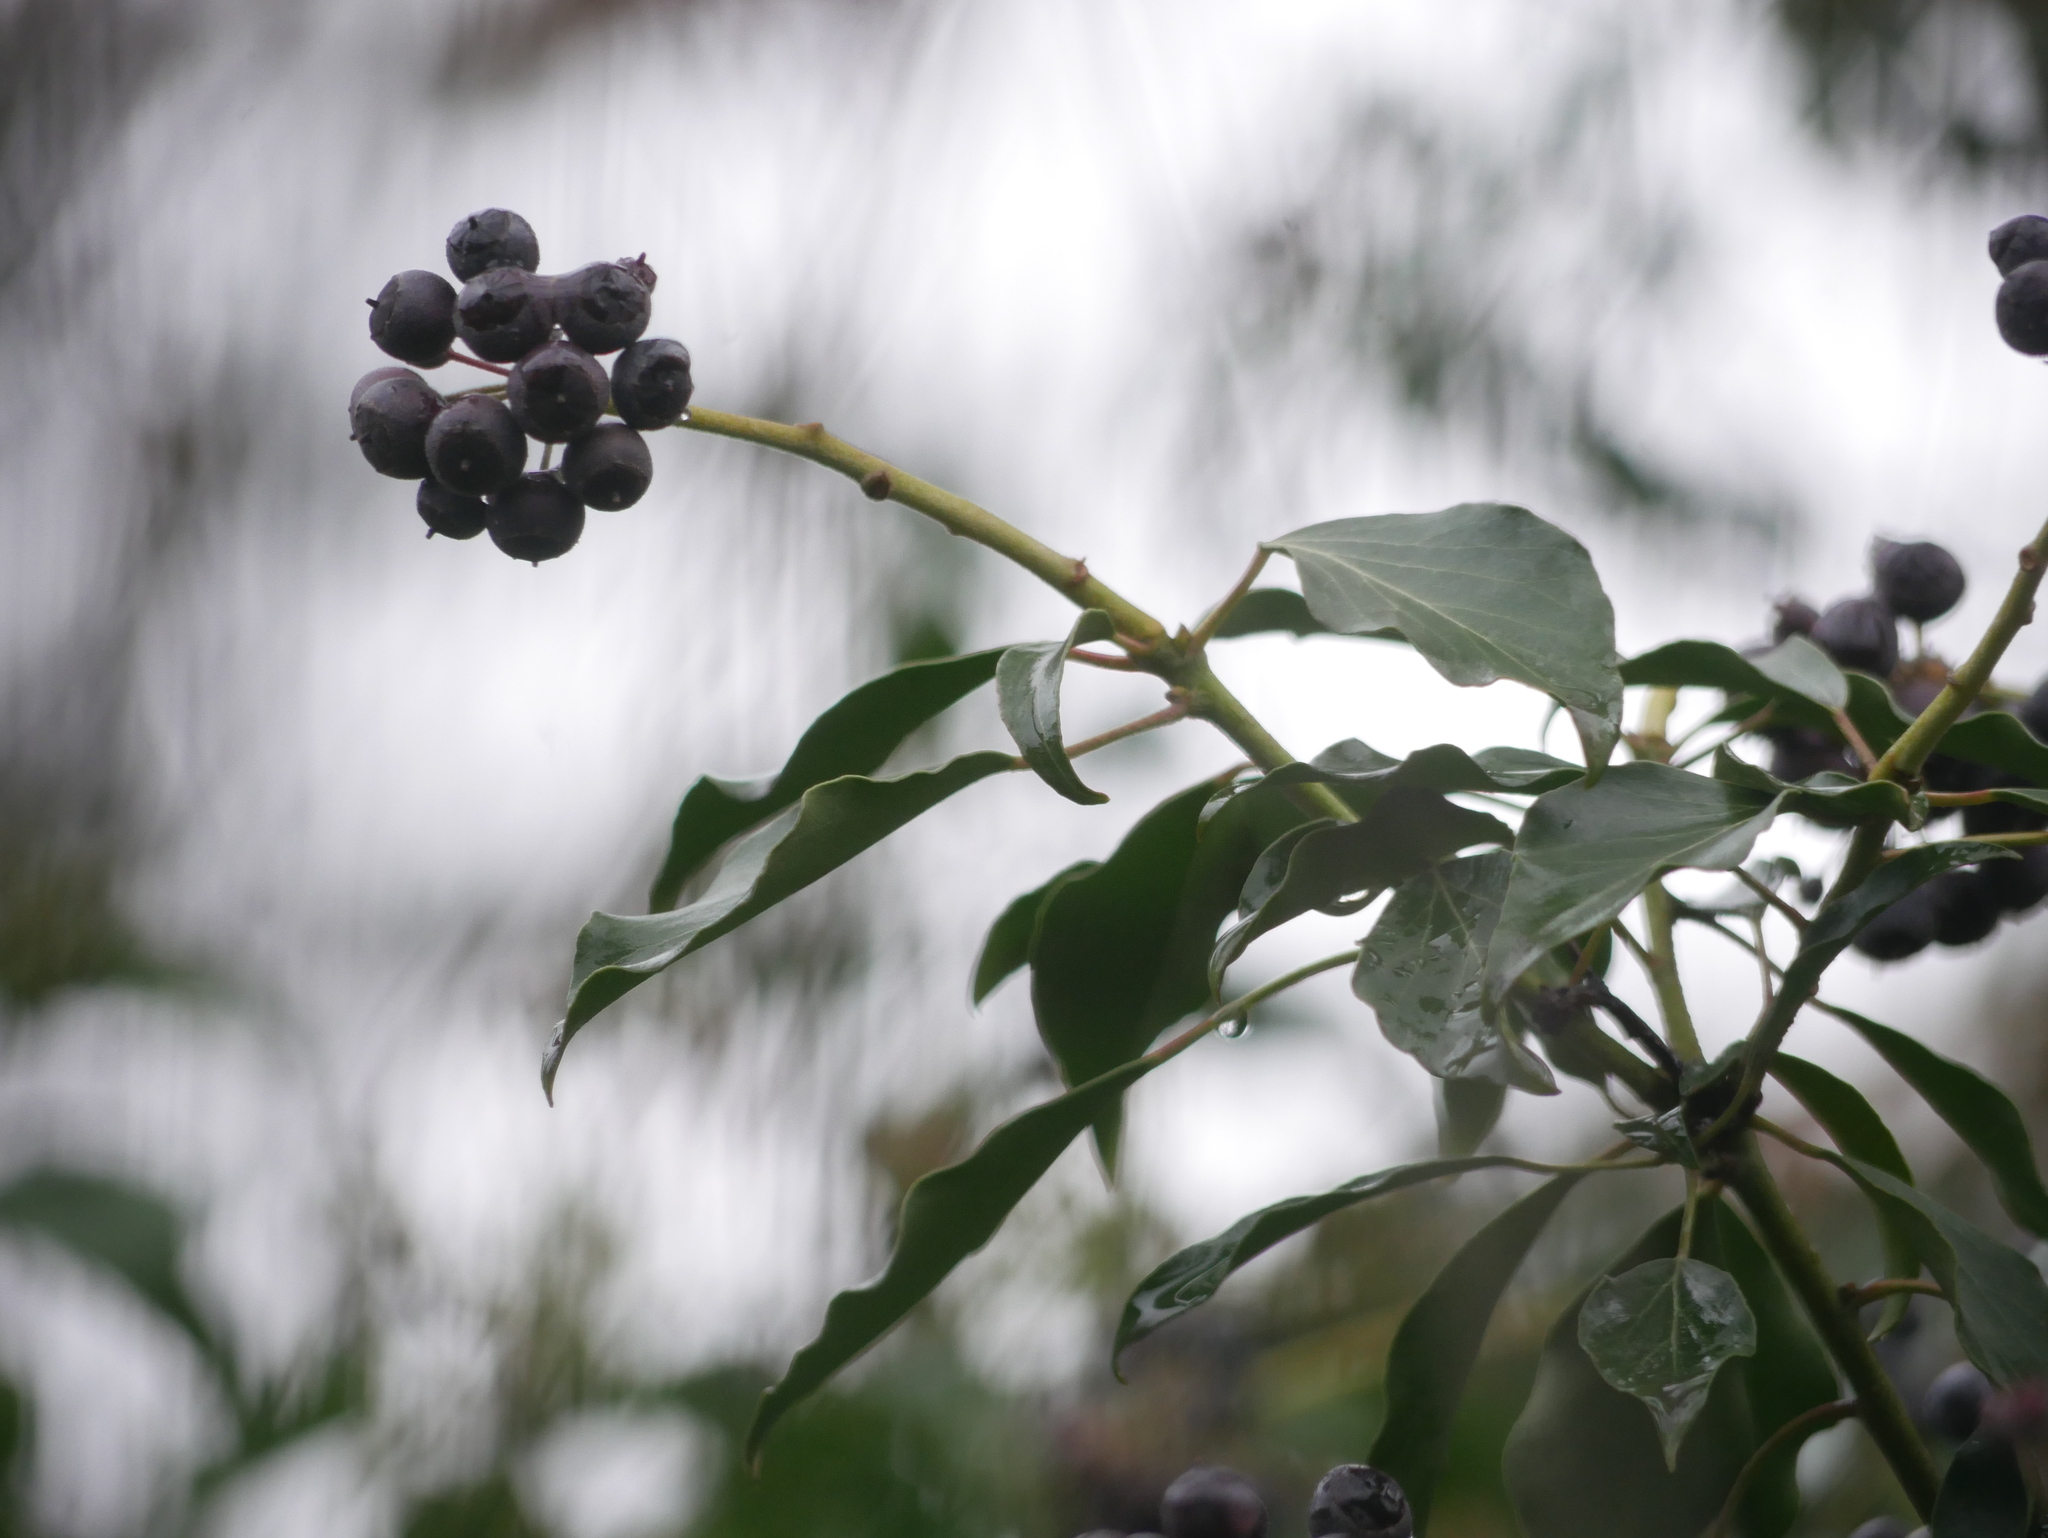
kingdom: Plantae
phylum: Tracheophyta
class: Magnoliopsida
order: Apiales
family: Araliaceae
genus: Hedera
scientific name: Hedera helix
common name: Ivy
